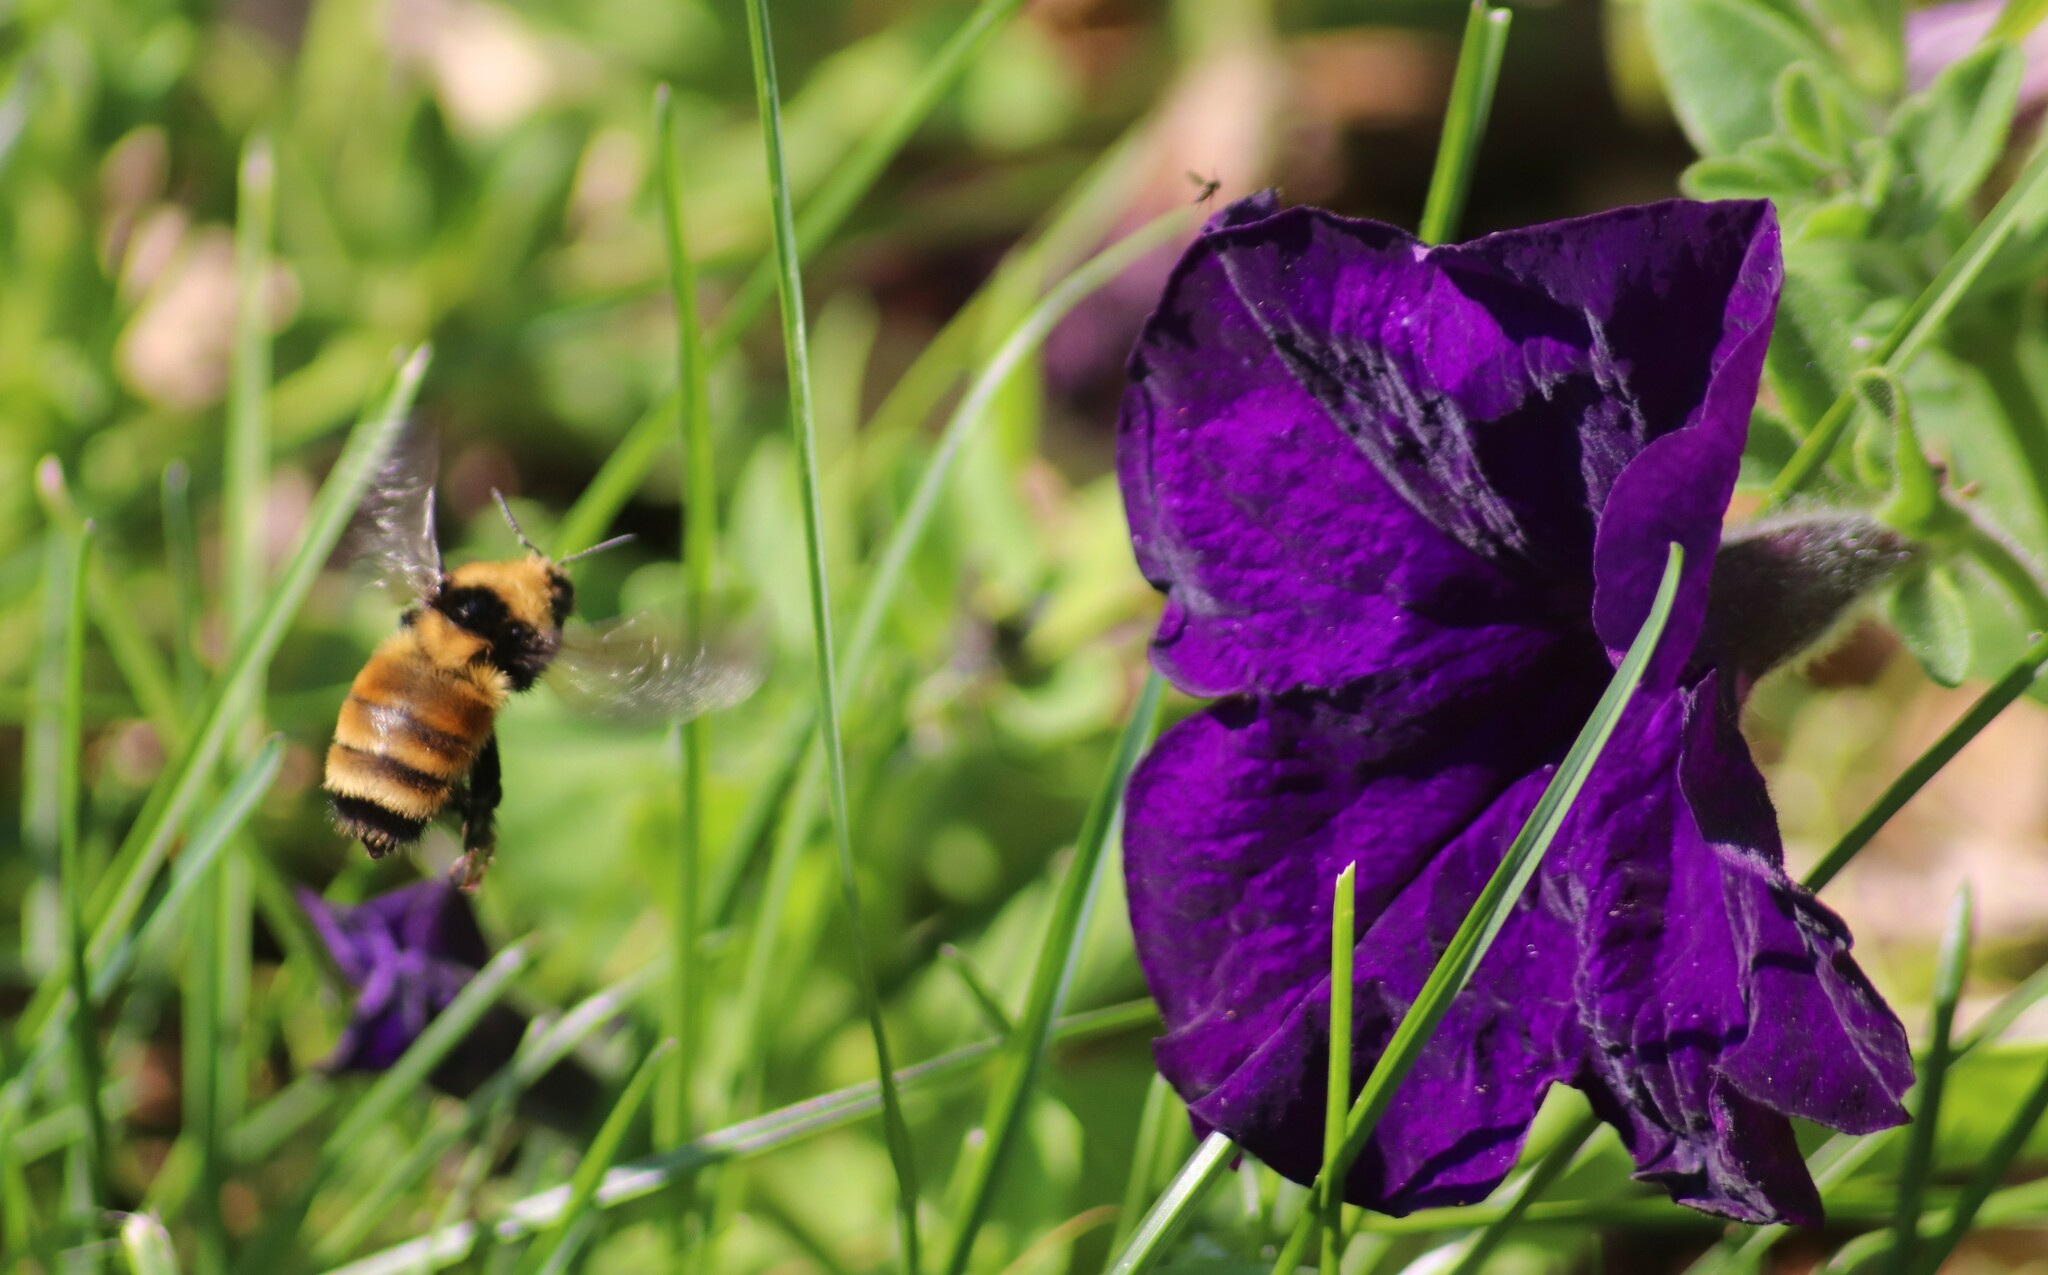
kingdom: Animalia
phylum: Arthropoda
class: Insecta
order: Hymenoptera
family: Apidae
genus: Bombus
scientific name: Bombus borealis
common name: Northern amber bumble bee
